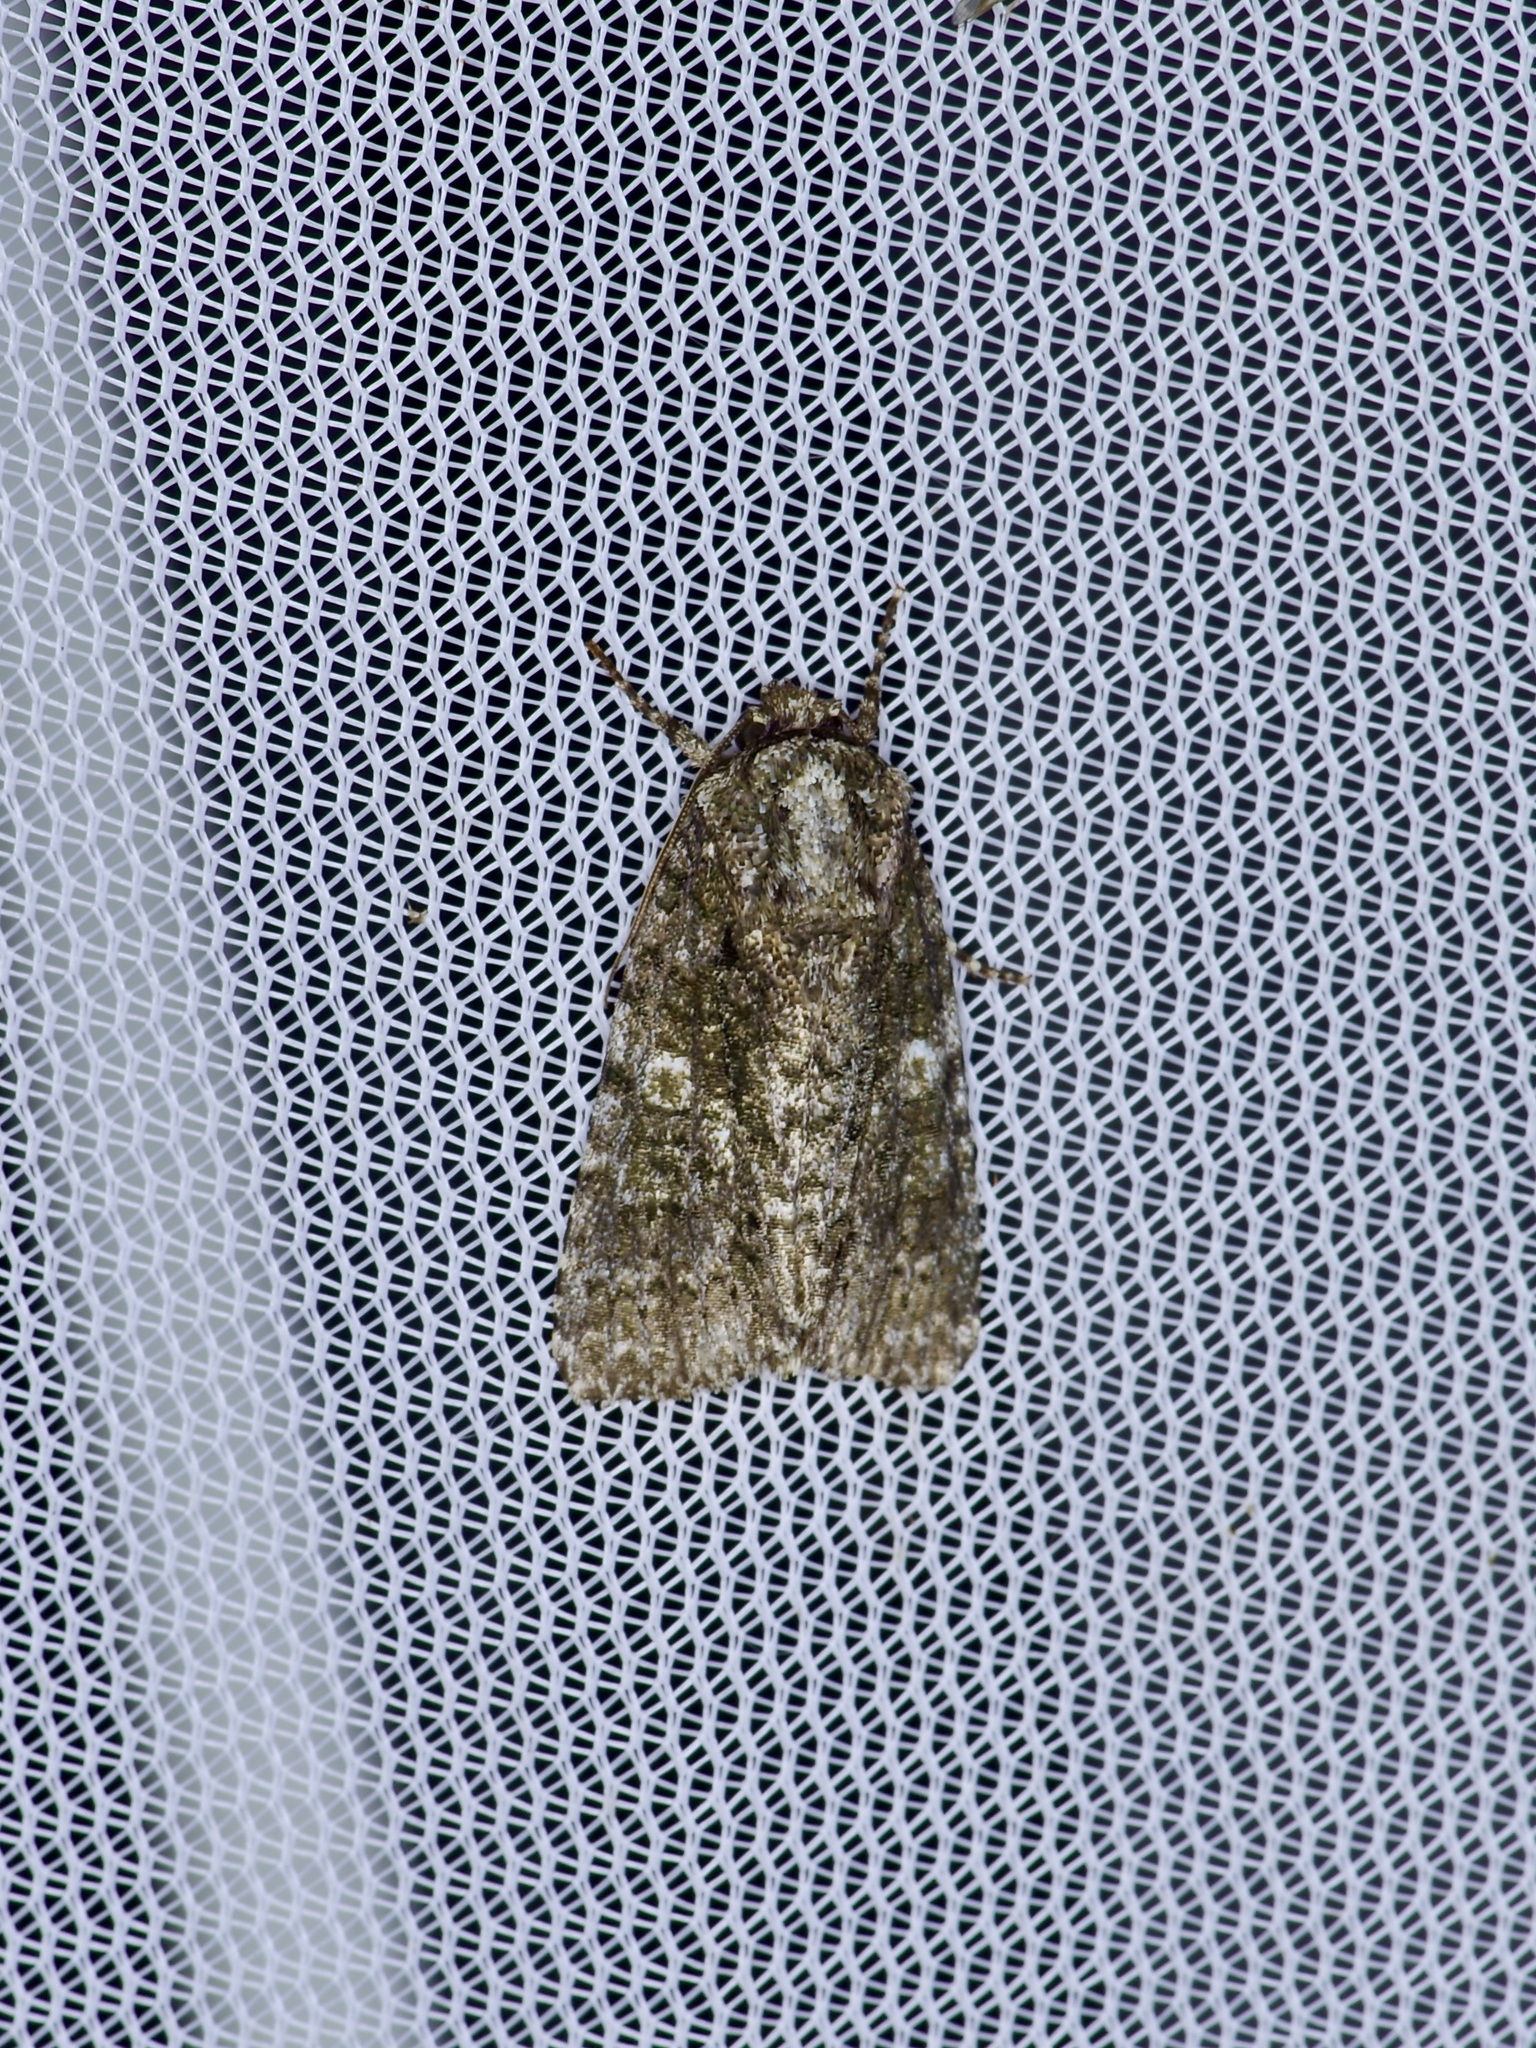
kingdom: Animalia
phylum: Arthropoda
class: Insecta
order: Lepidoptera
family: Noctuidae
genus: Acronicta
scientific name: Acronicta afflicta
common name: Afflicted dagger moth
